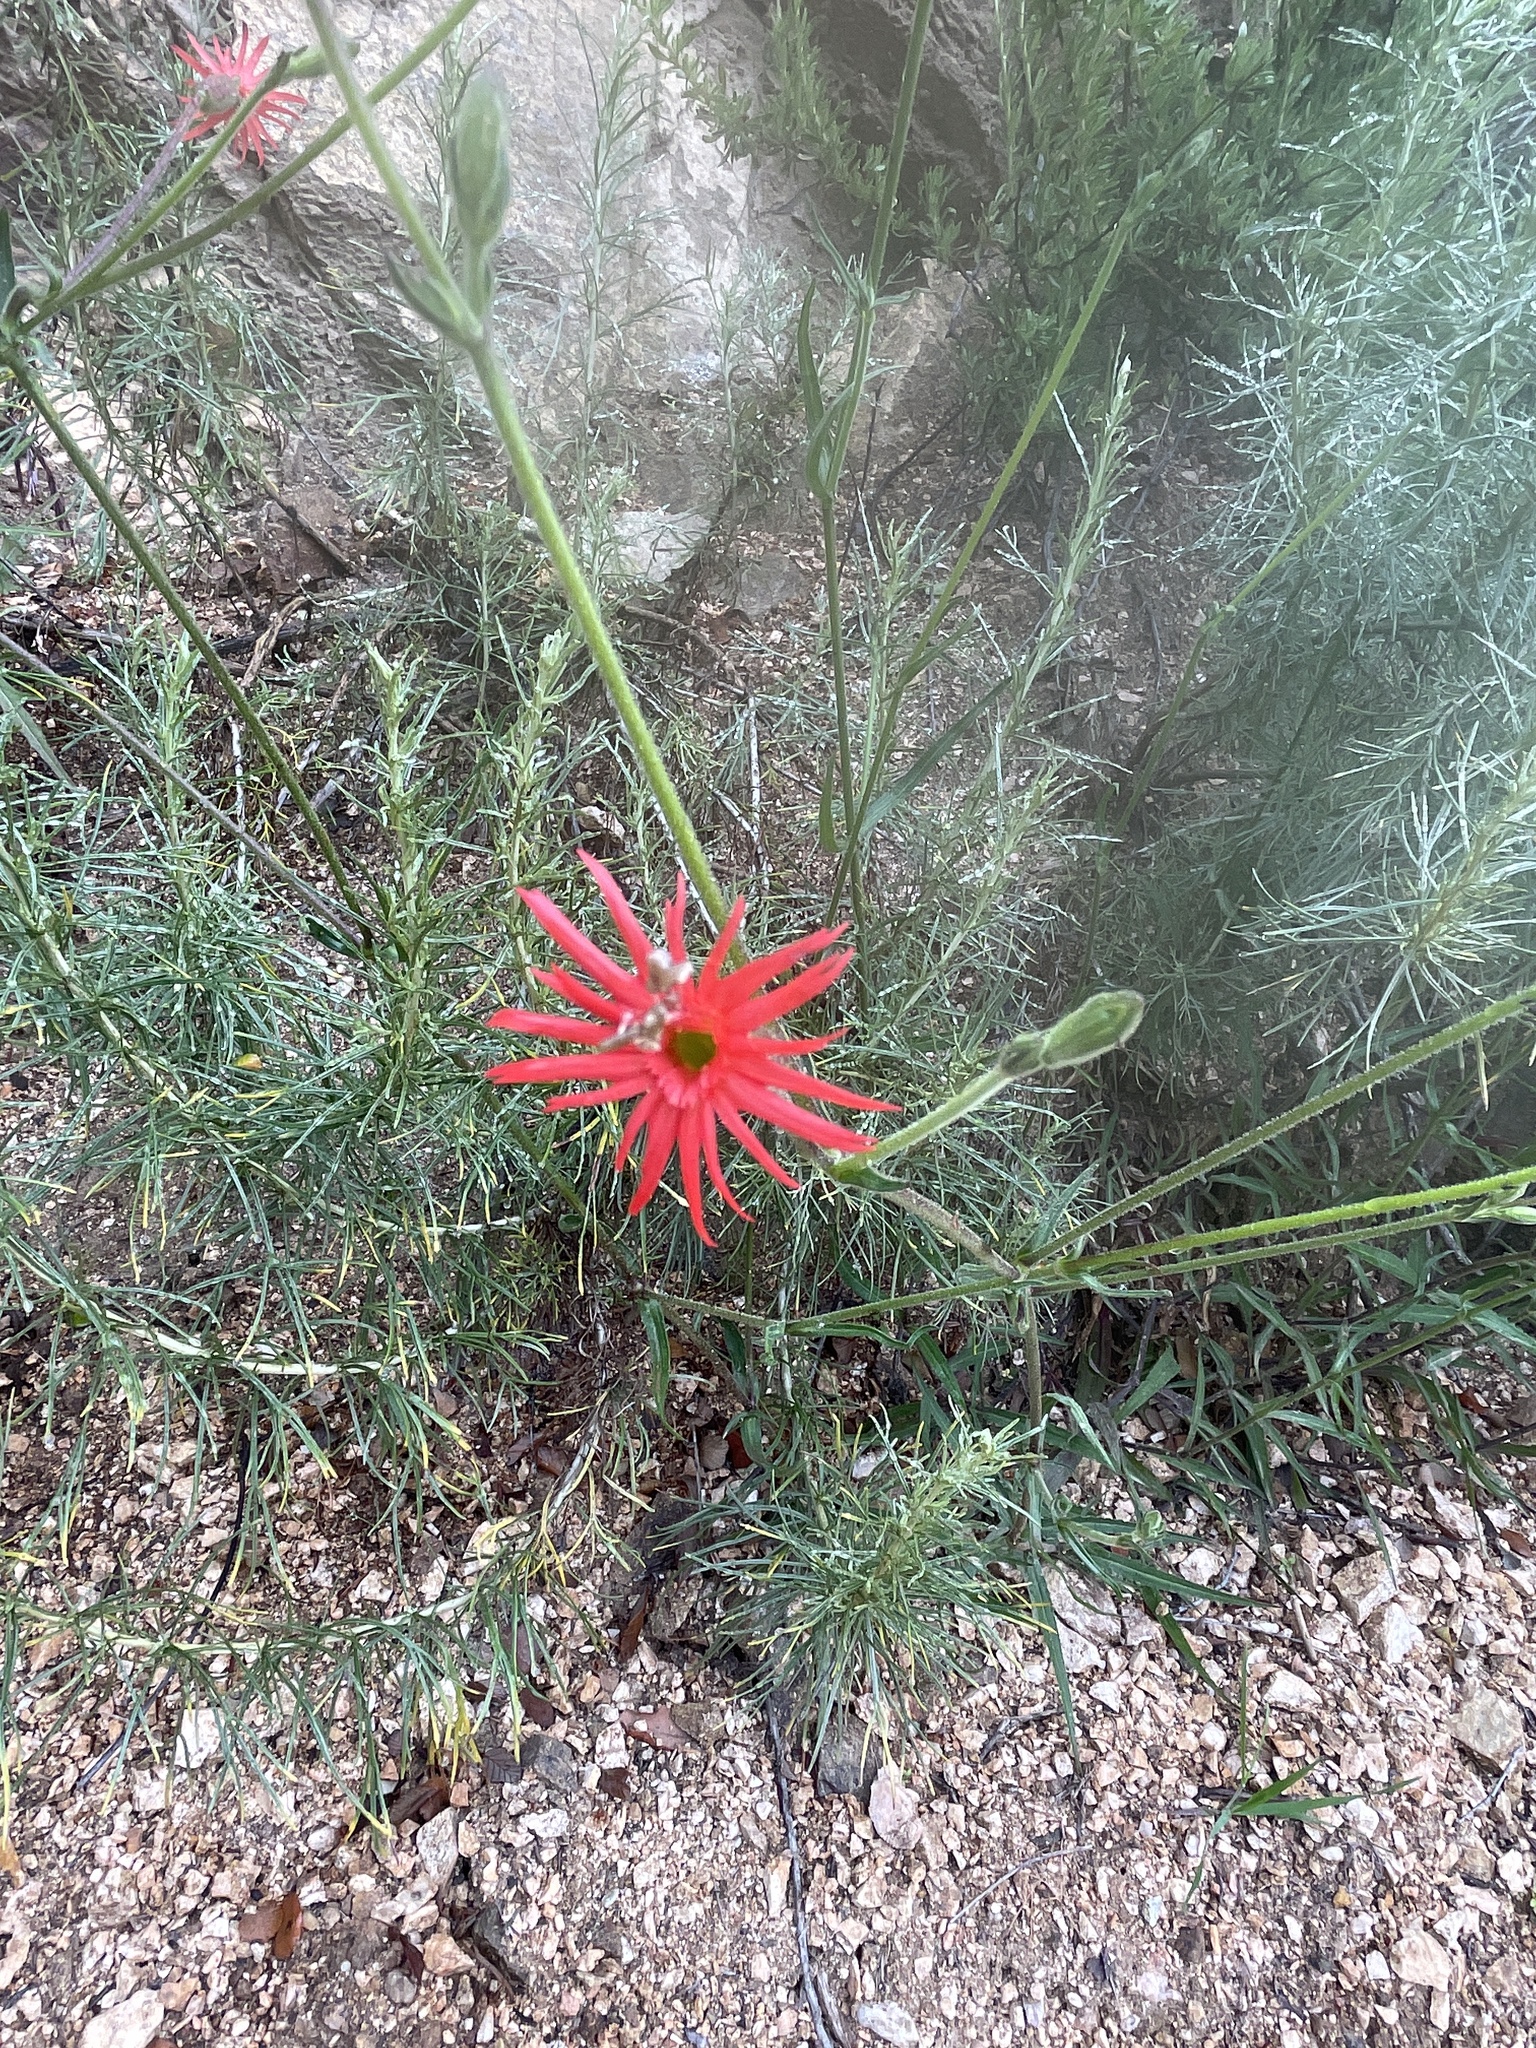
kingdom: Plantae
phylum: Tracheophyta
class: Magnoliopsida
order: Caryophyllales
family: Caryophyllaceae
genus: Silene
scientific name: Silene laciniata
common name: Indian-pink
